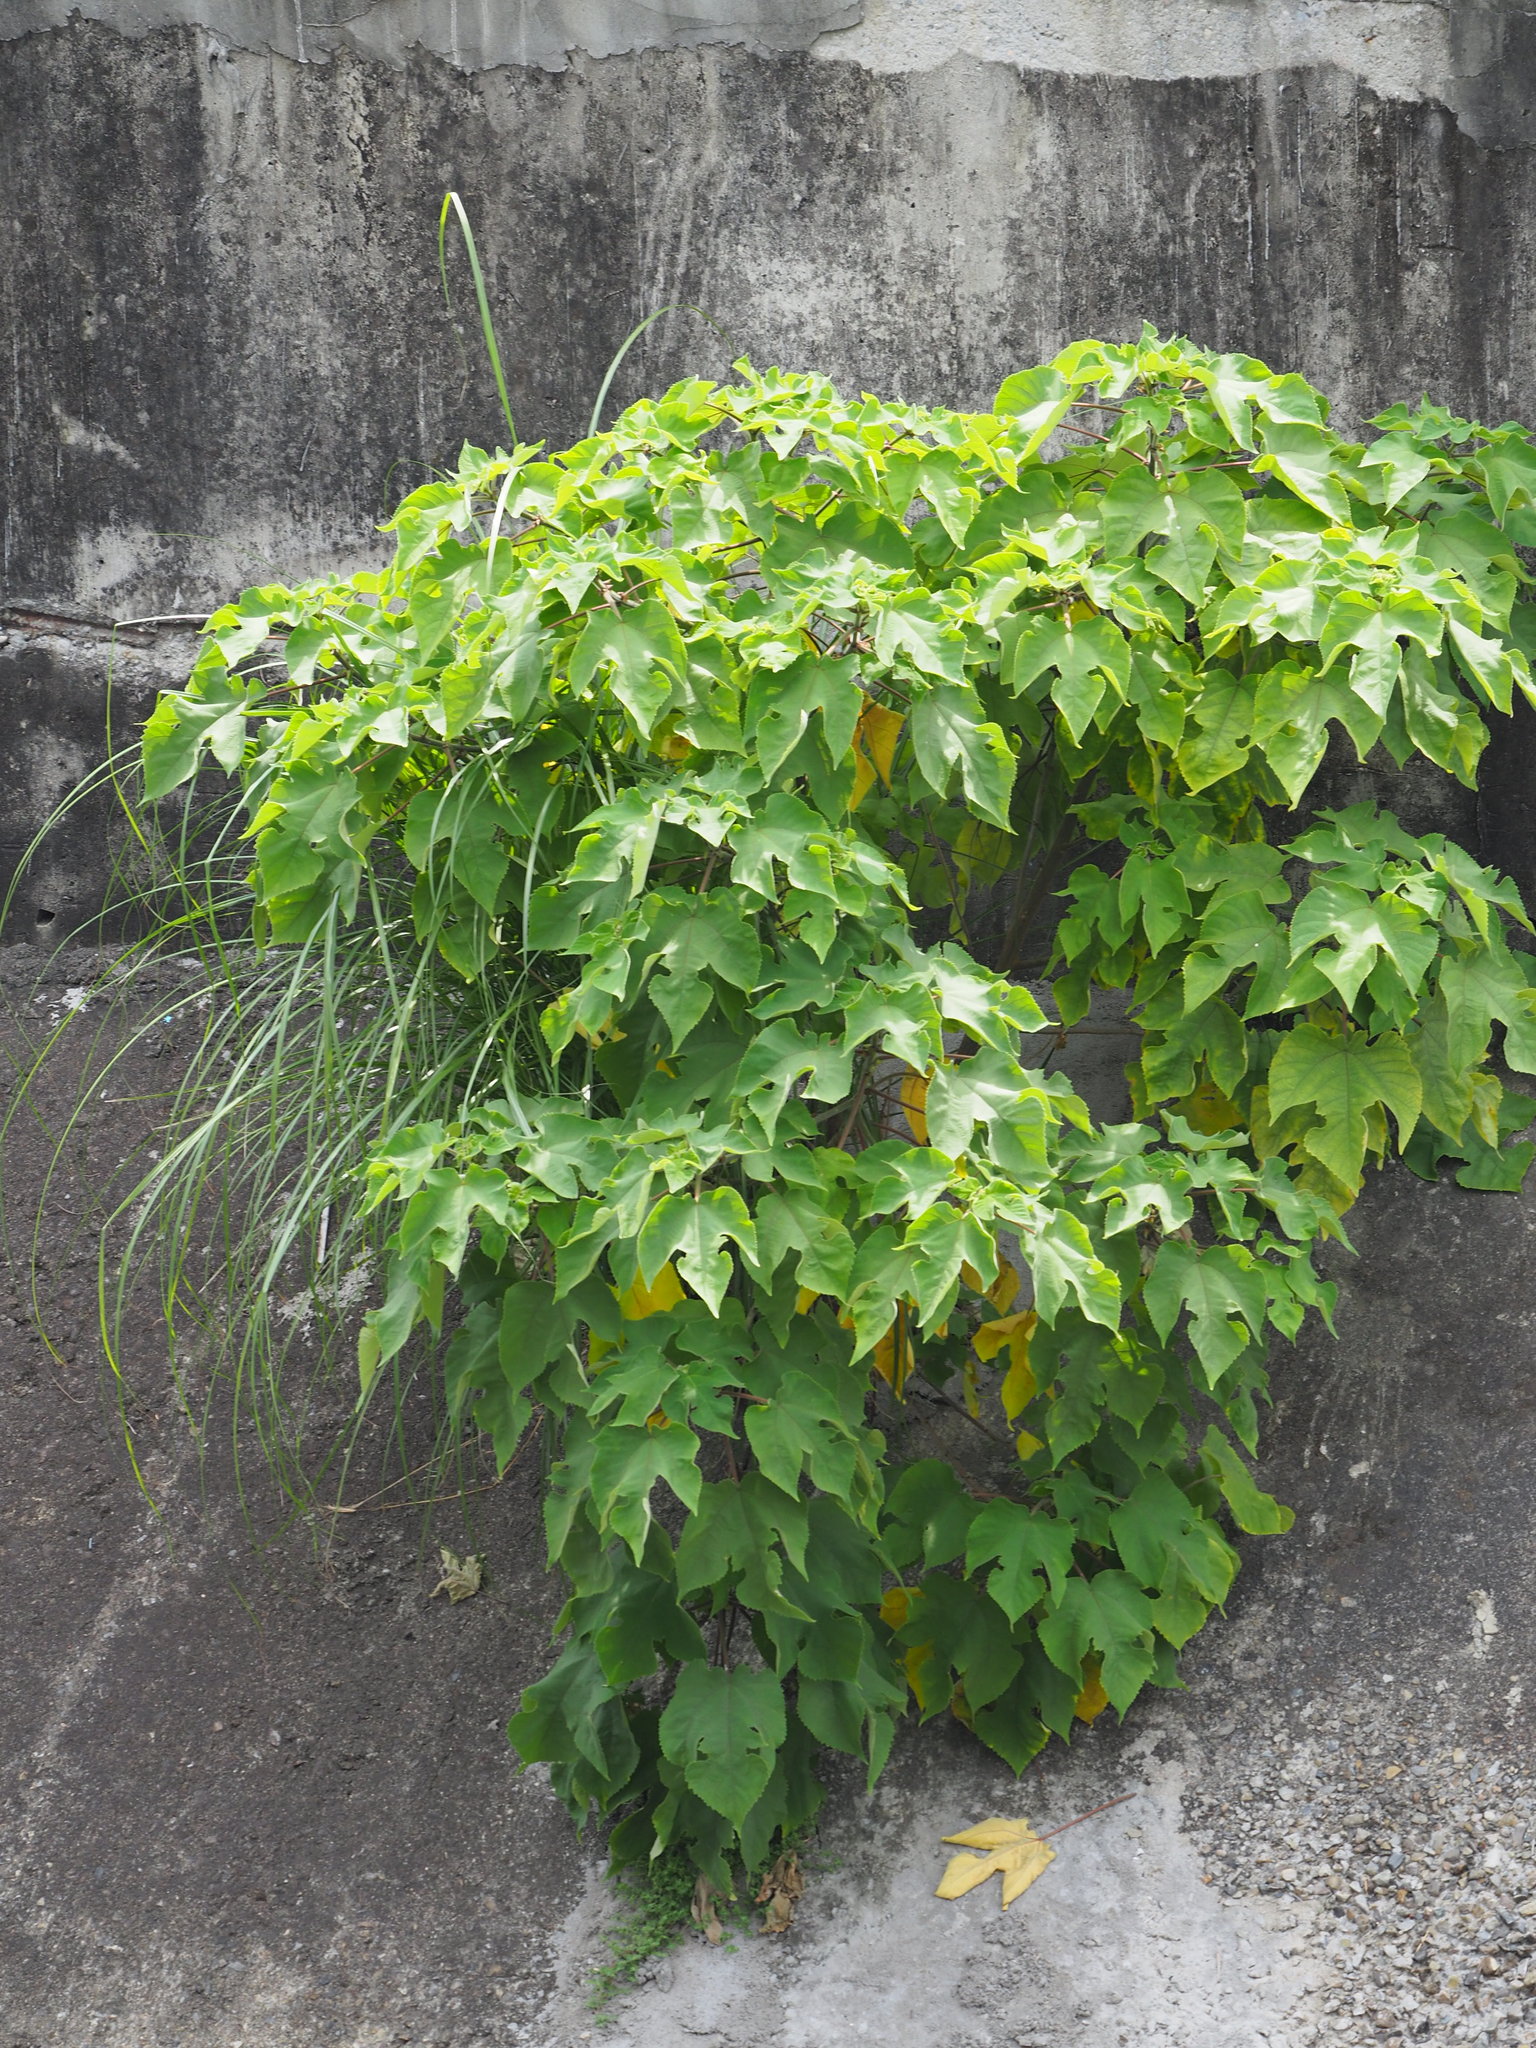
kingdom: Plantae
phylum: Tracheophyta
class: Magnoliopsida
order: Rosales
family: Moraceae
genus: Broussonetia
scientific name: Broussonetia papyrifera
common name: Paper mulberry
